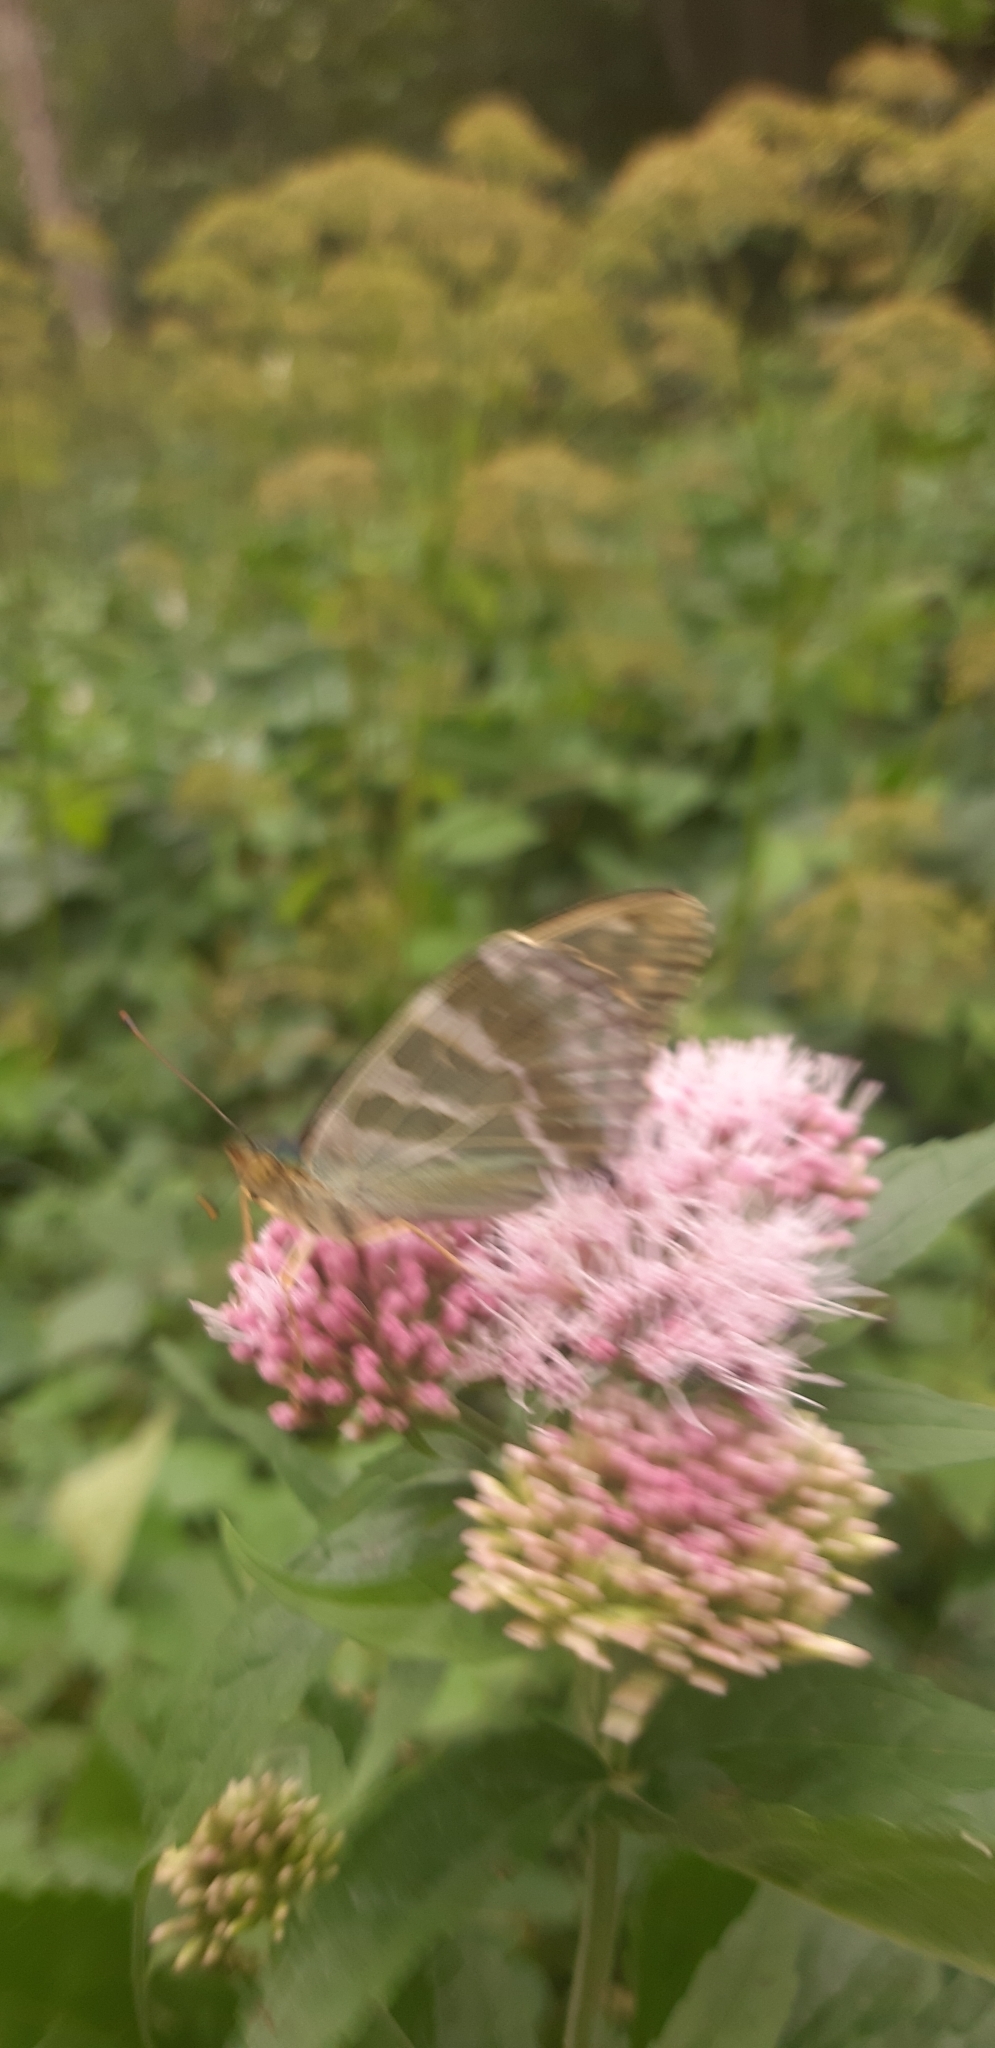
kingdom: Animalia
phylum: Arthropoda
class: Insecta
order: Lepidoptera
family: Nymphalidae
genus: Argynnis
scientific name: Argynnis paphia
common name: Silver-washed fritillary
